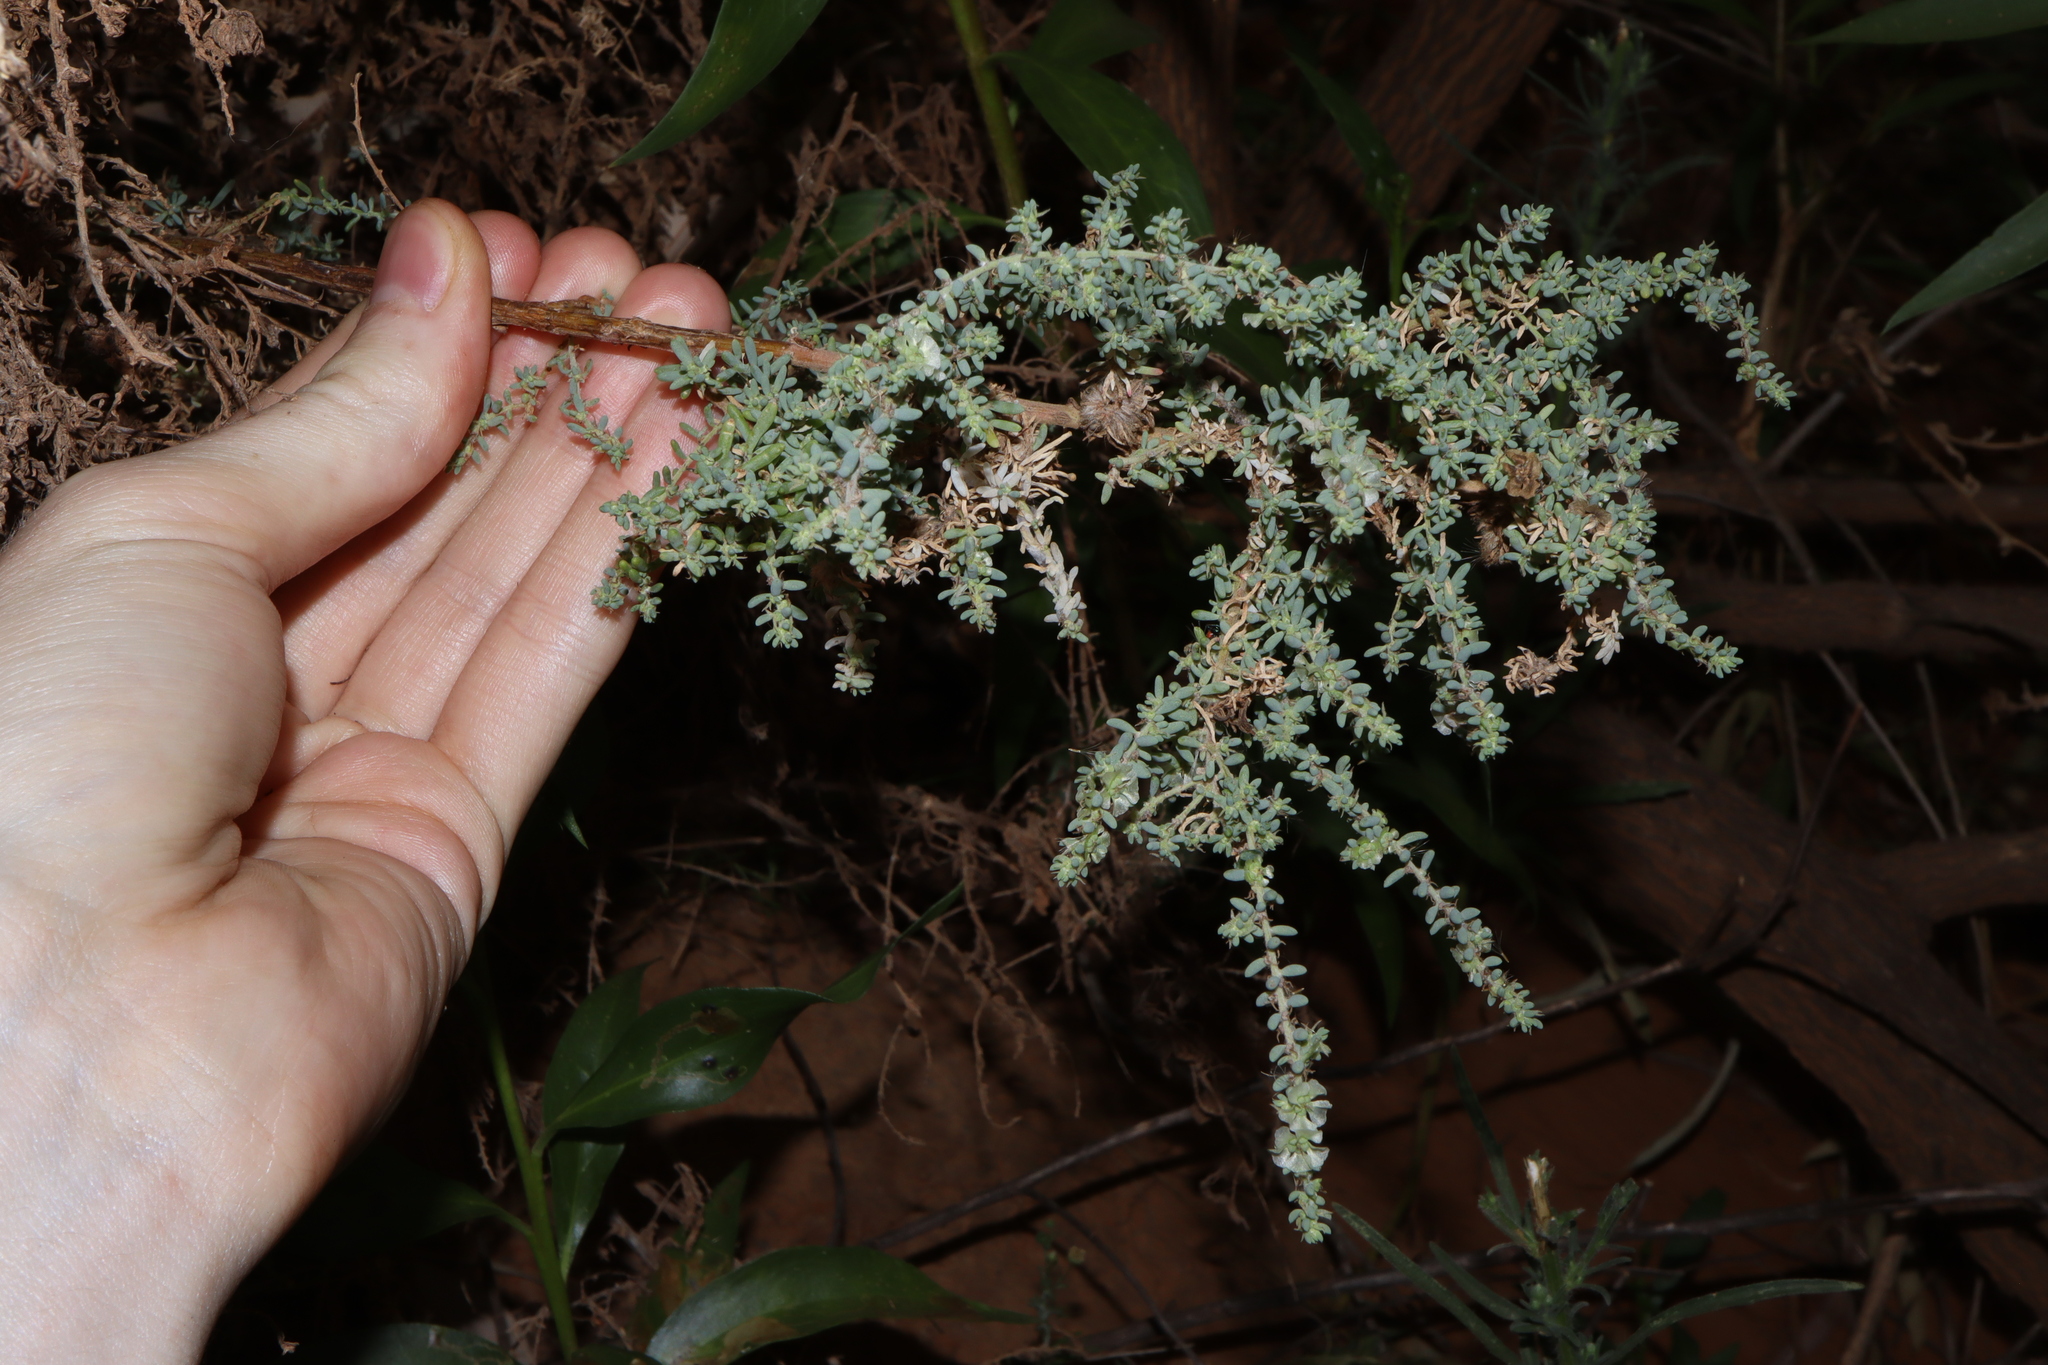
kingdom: Plantae
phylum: Tracheophyta
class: Magnoliopsida
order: Caryophyllales
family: Amaranthaceae
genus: Maireana
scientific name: Maireana brevifolia
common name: Eastern cottonbush
